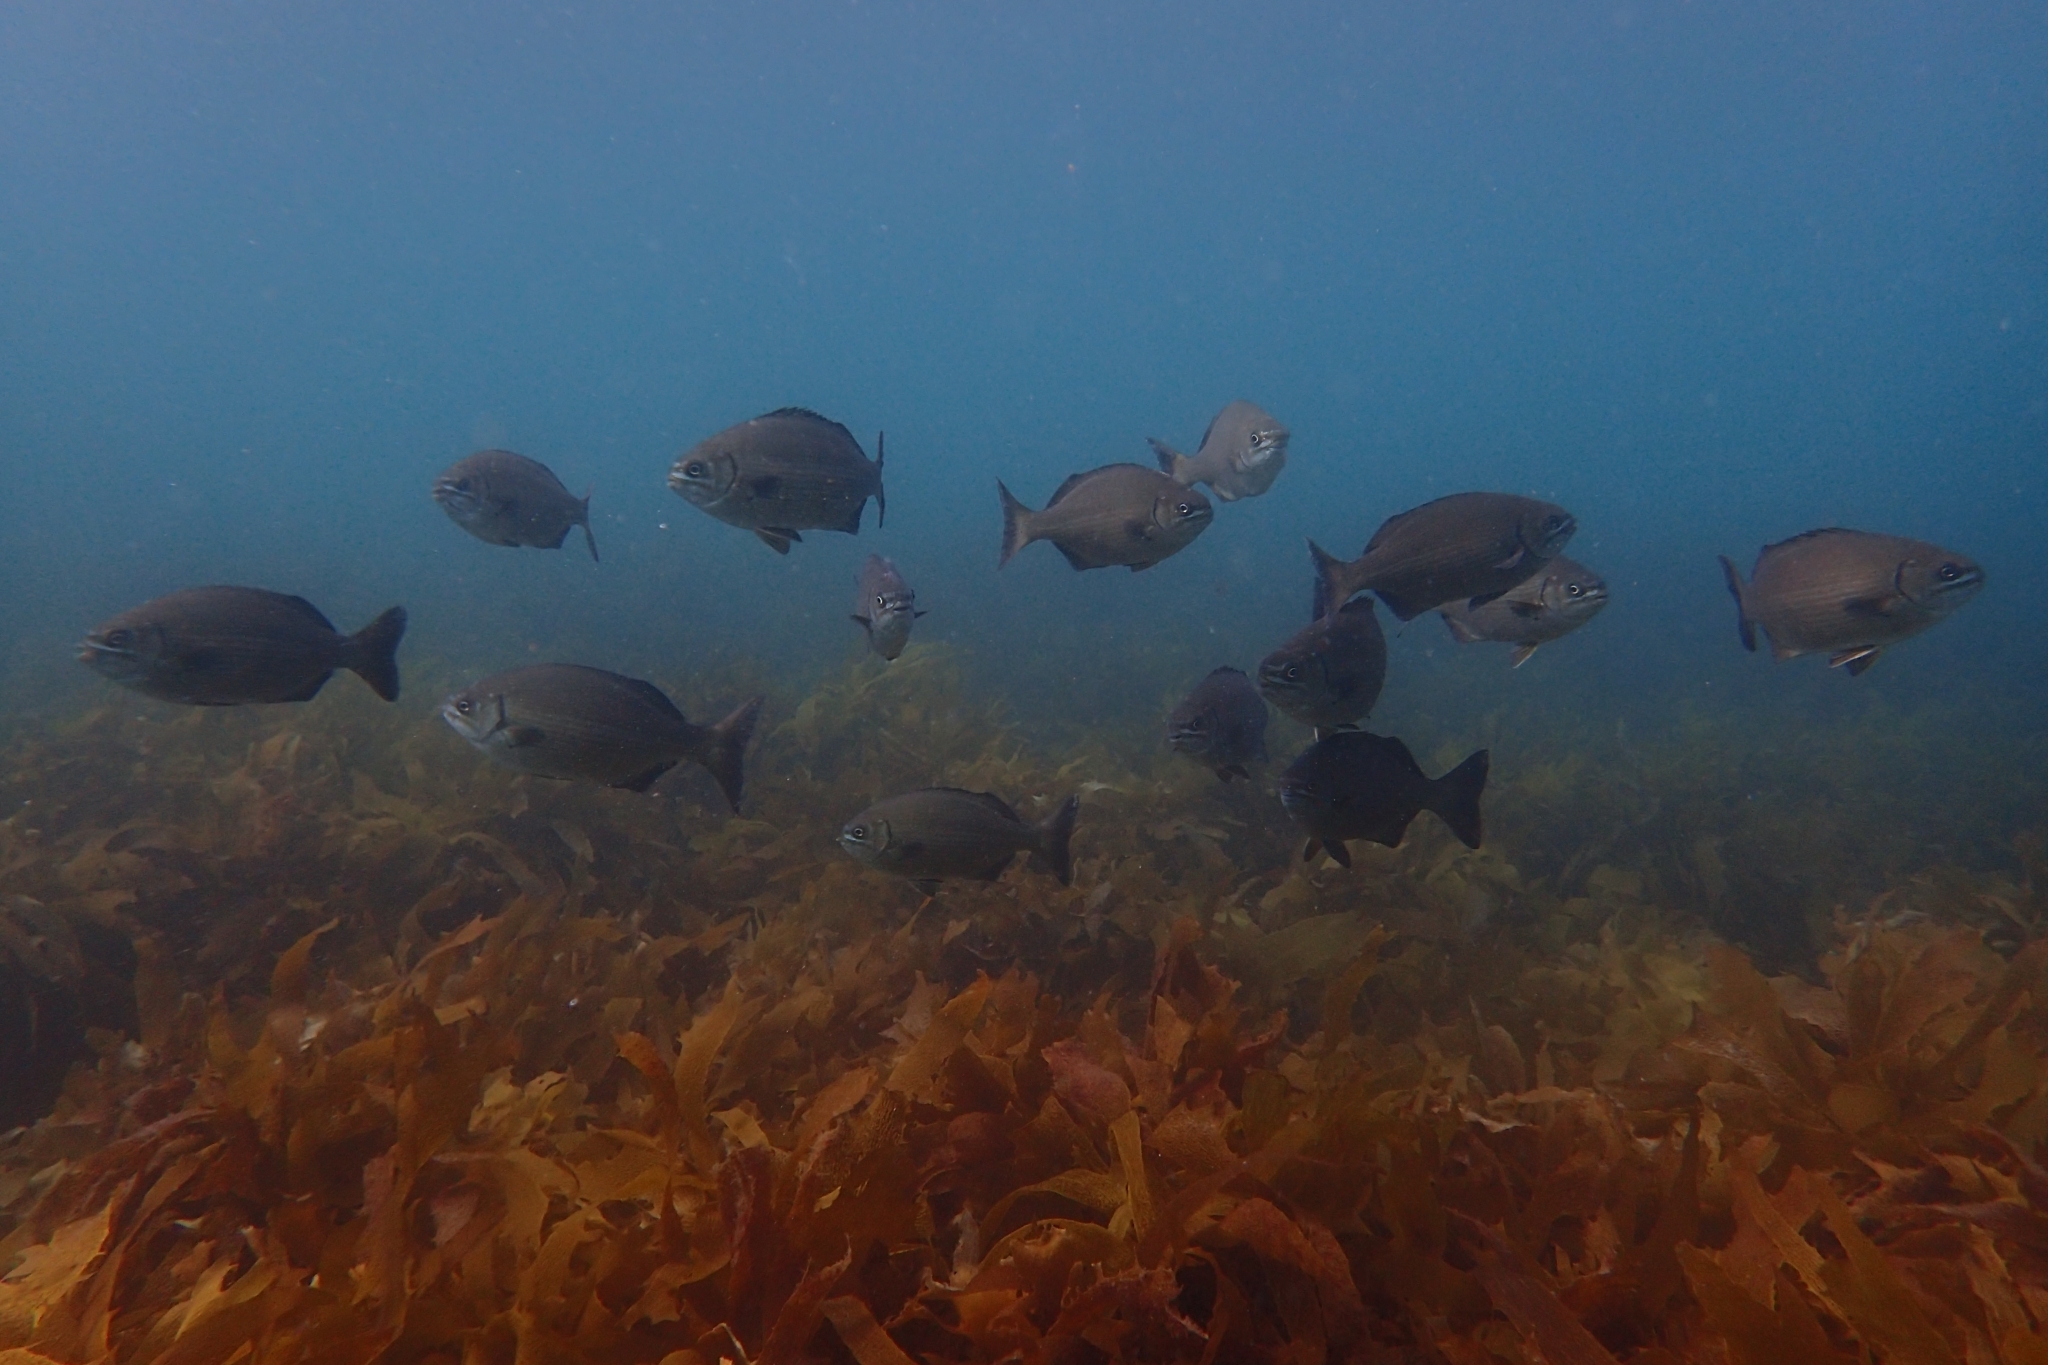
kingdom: Animalia
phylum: Chordata
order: Perciformes
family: Kyphosidae
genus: Kyphosus
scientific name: Kyphosus sydneyanus
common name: Silver drummer
